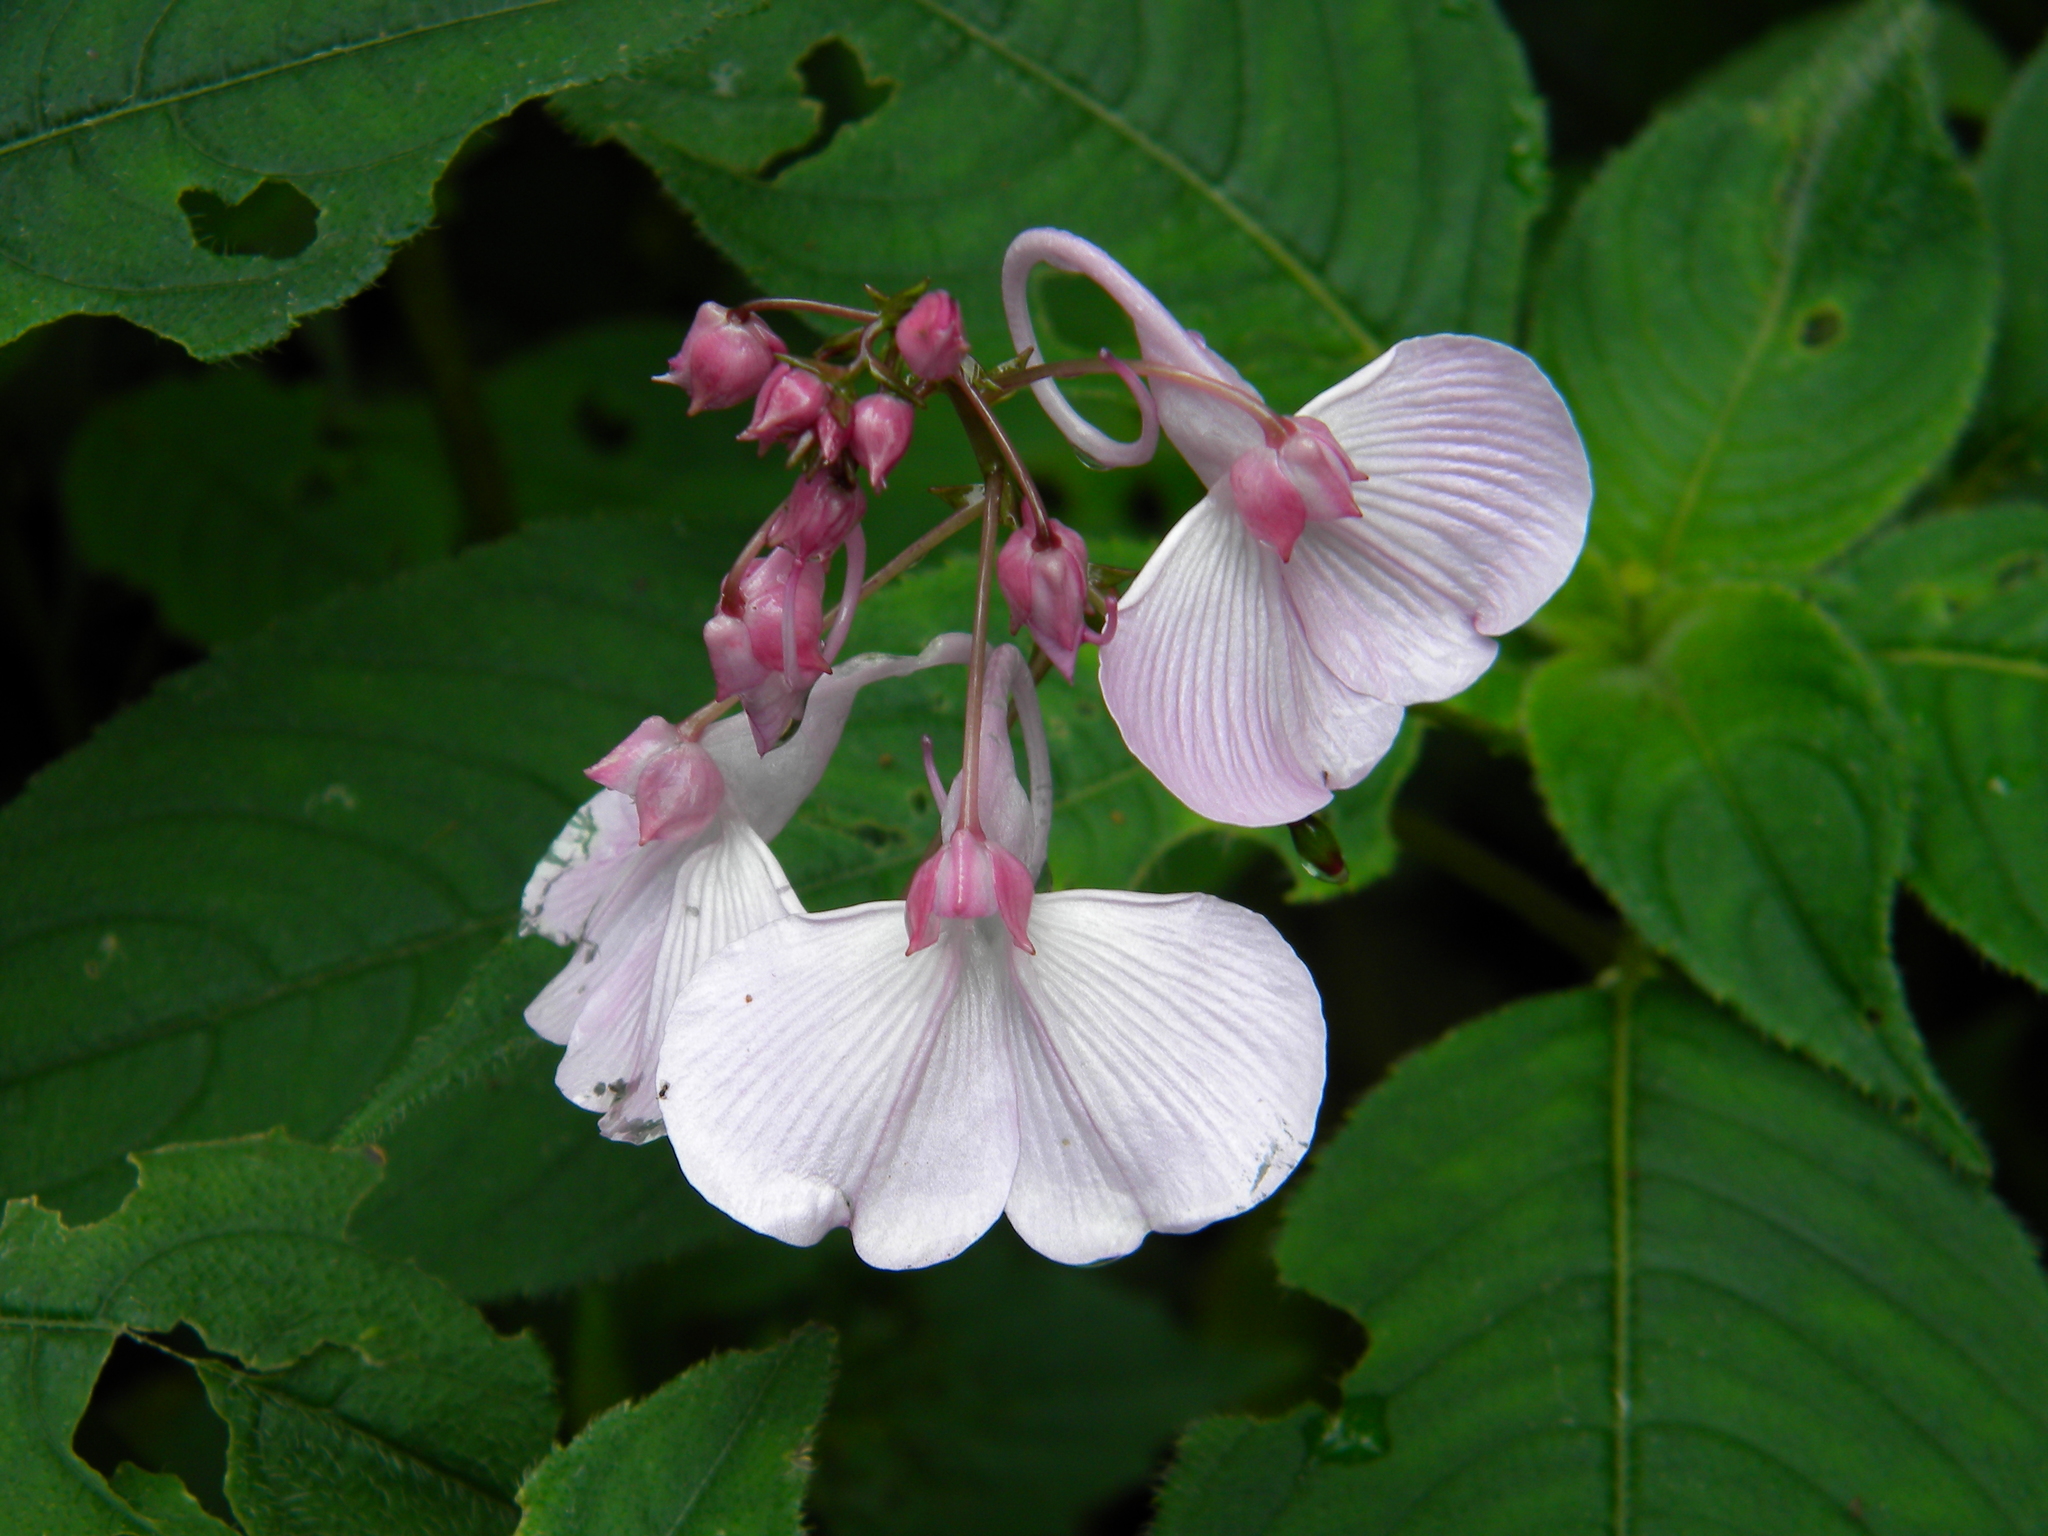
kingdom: Plantae
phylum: Tracheophyta
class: Magnoliopsida
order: Ericales
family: Balsaminaceae
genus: Impatiens
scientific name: Impatiens maculata
